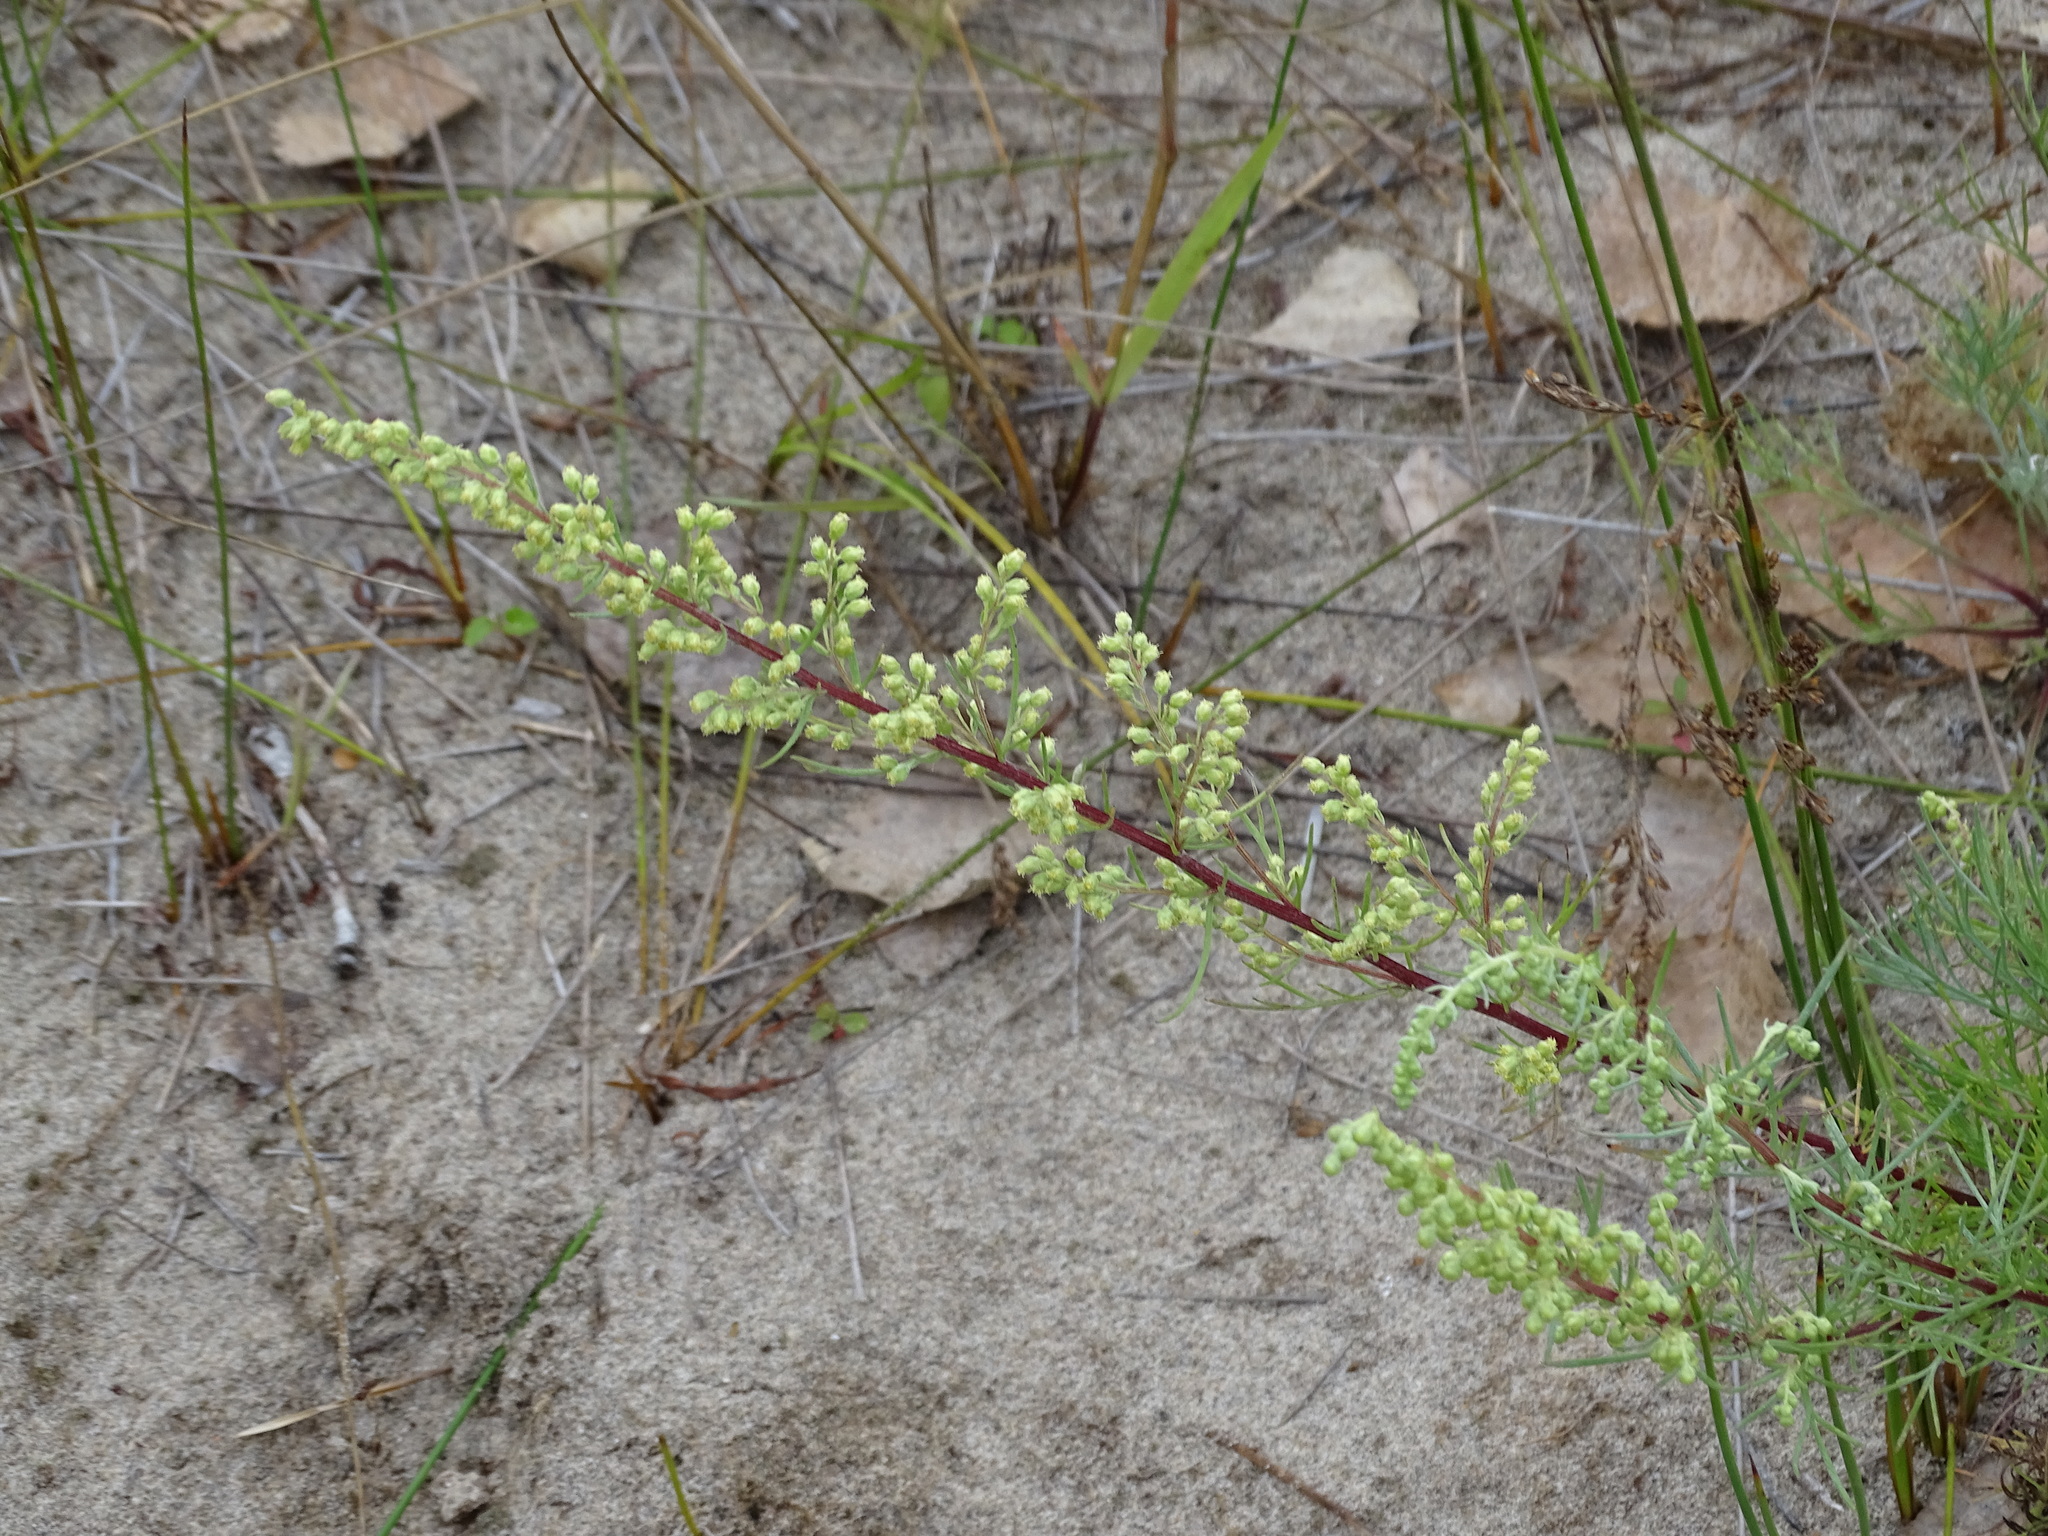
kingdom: Plantae
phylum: Tracheophyta
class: Magnoliopsida
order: Asterales
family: Asteraceae
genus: Artemisia
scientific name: Artemisia campestris
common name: Field wormwood
